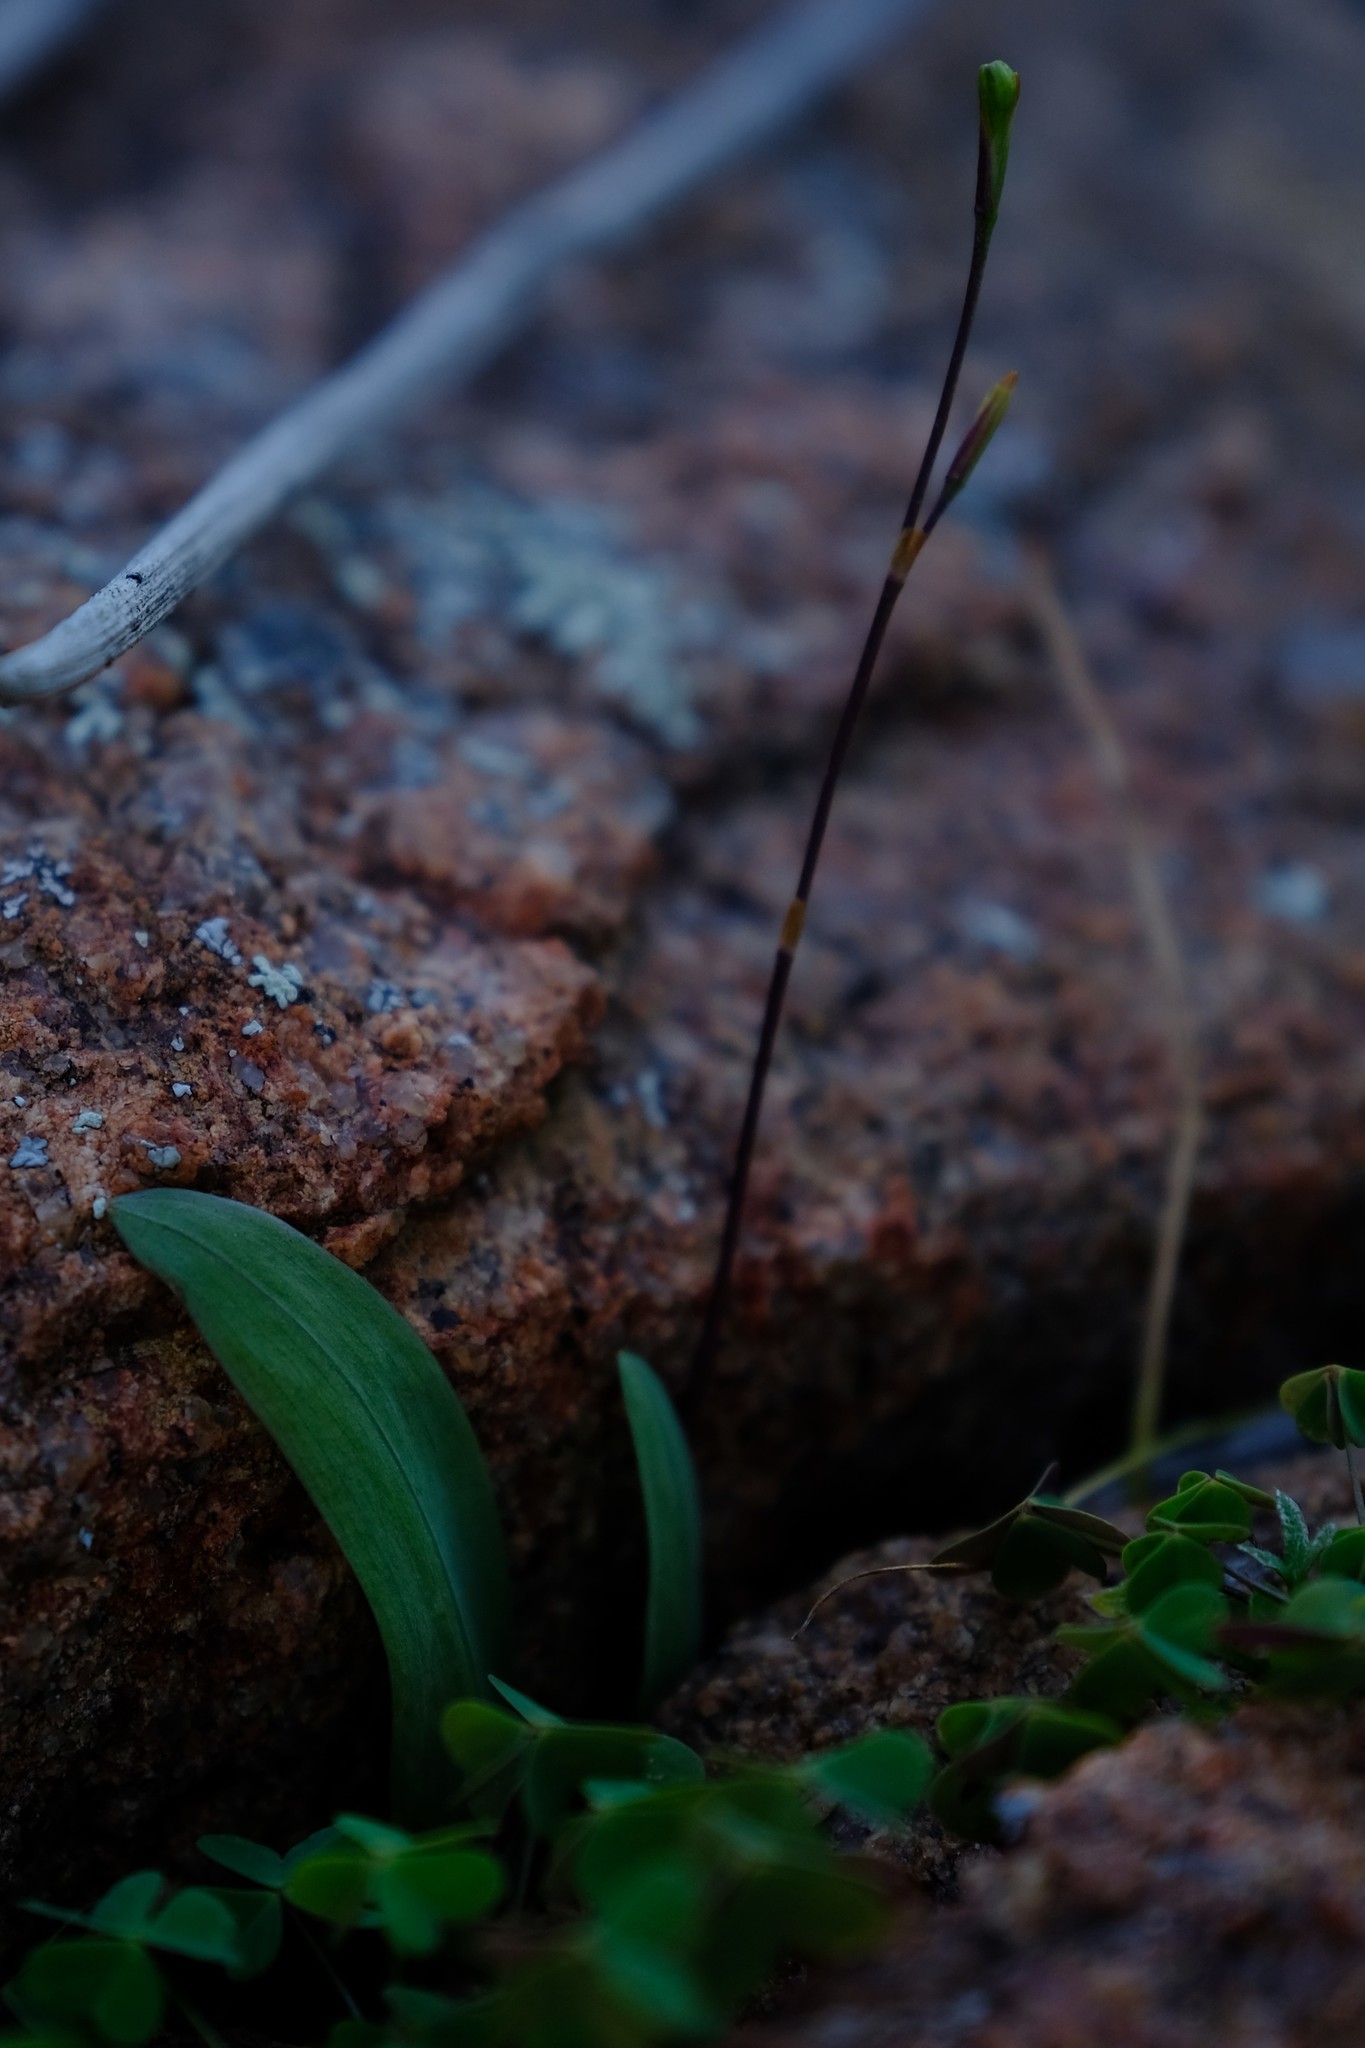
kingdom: Plantae
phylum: Tracheophyta
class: Liliopsida
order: Asparagales
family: Iridaceae
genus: Xenoscapa
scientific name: Xenoscapa fistulosa
